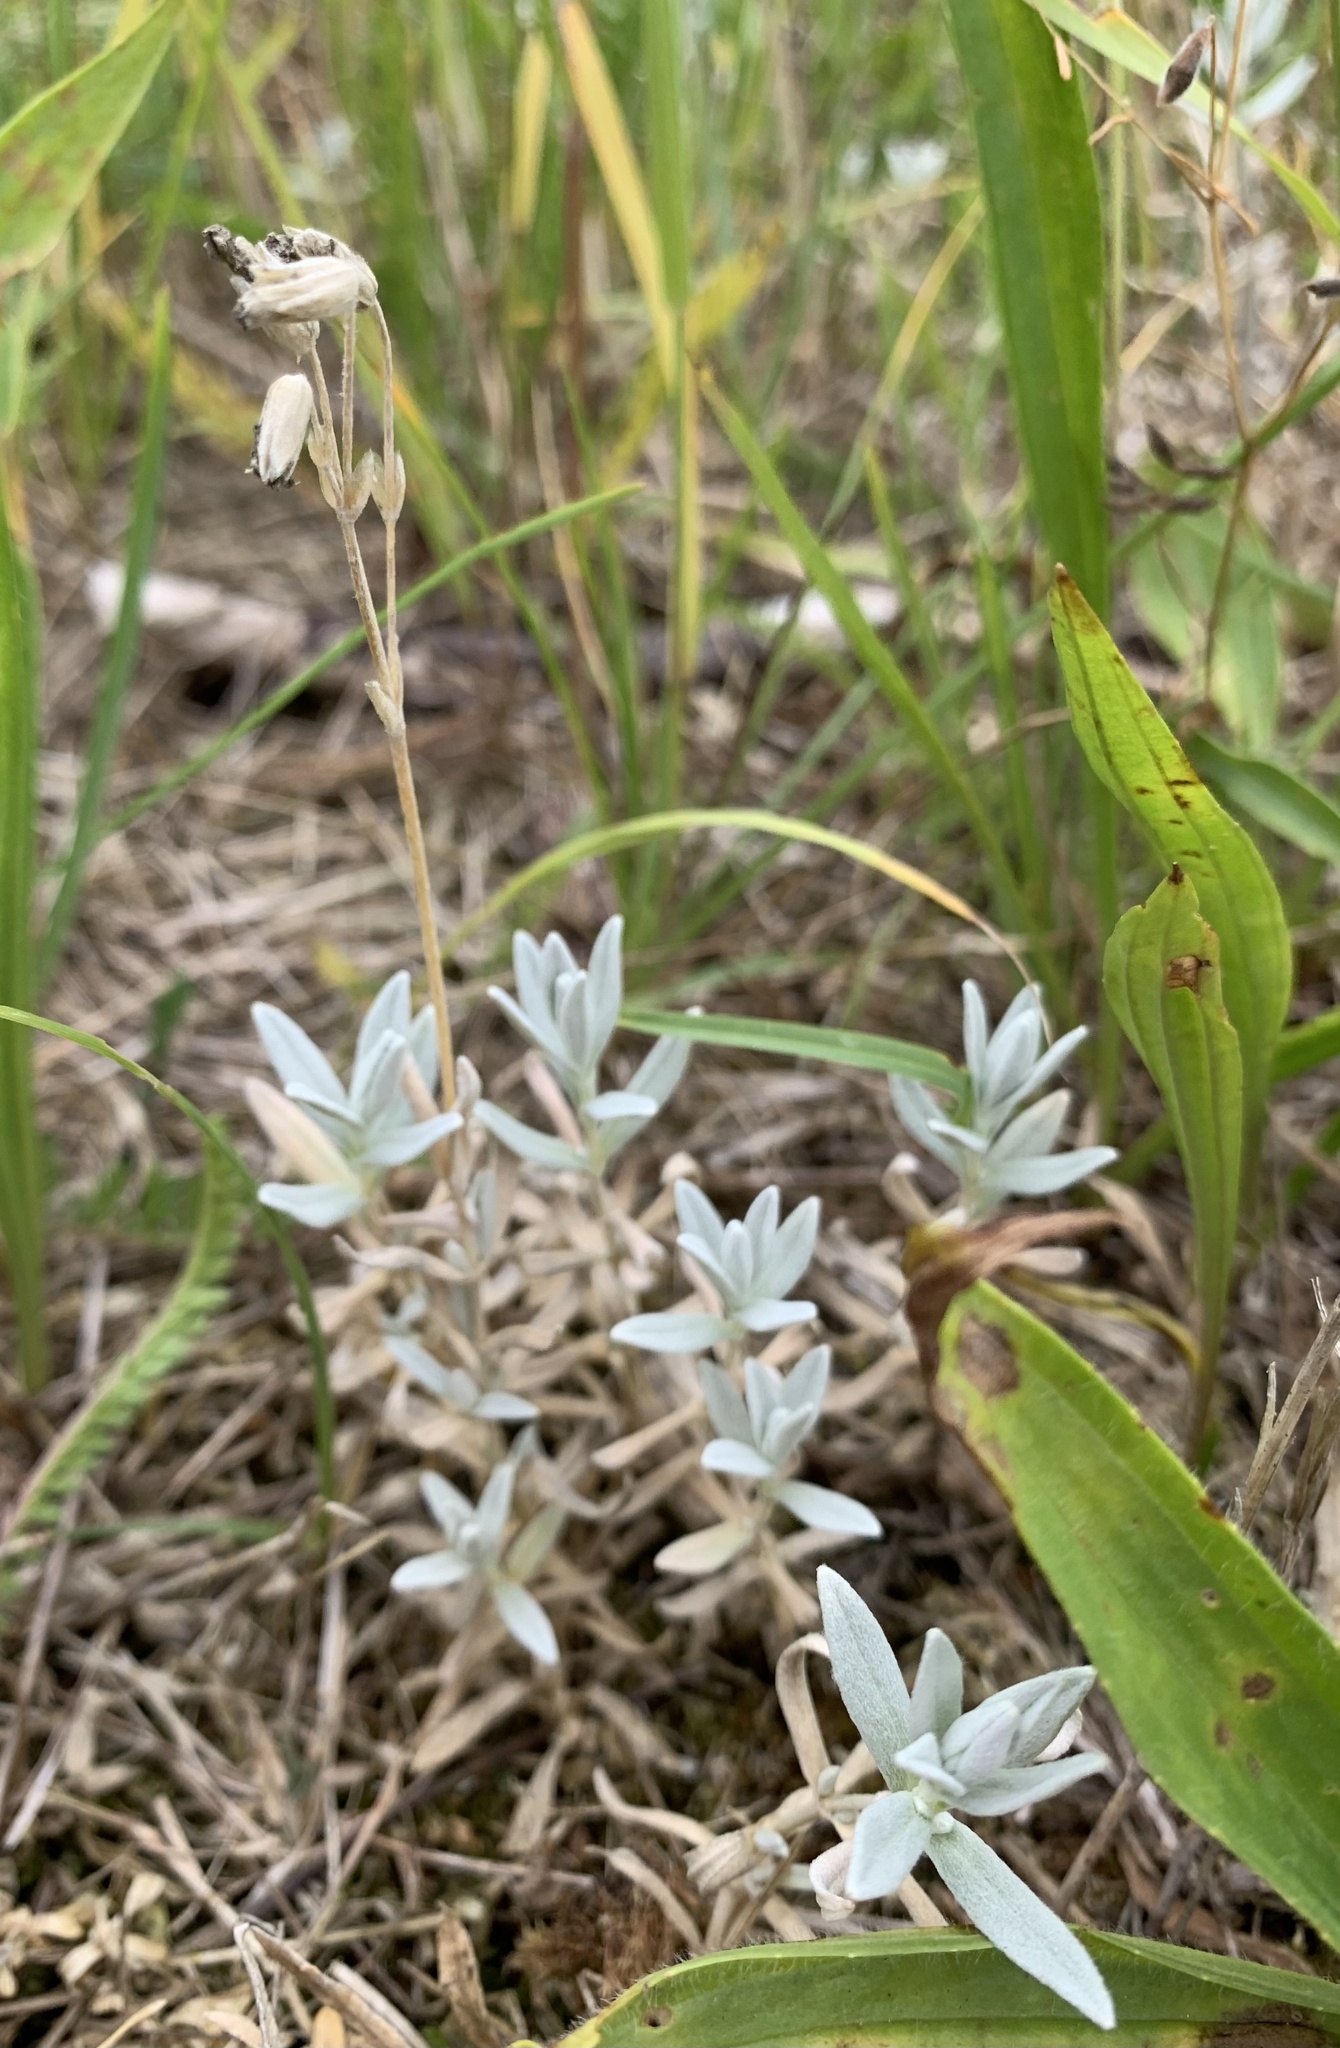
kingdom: Plantae
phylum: Tracheophyta
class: Magnoliopsida
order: Caryophyllales
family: Caryophyllaceae
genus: Cerastium
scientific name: Cerastium tomentosum
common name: Snow-in-summer
